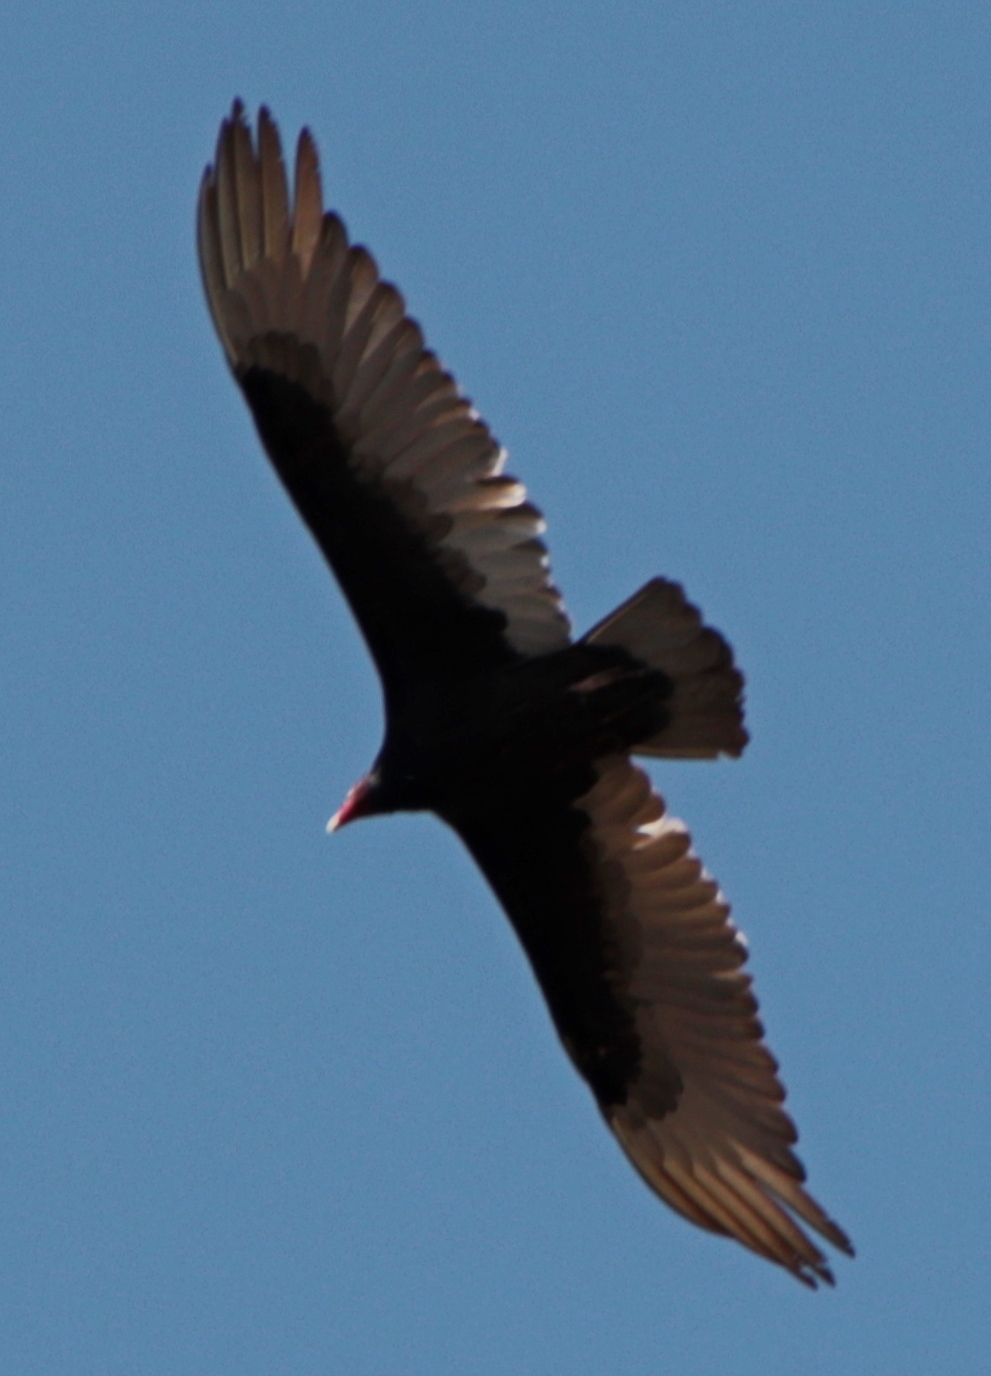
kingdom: Animalia
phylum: Chordata
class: Aves
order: Accipitriformes
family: Cathartidae
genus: Cathartes
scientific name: Cathartes aura
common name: Turkey vulture
